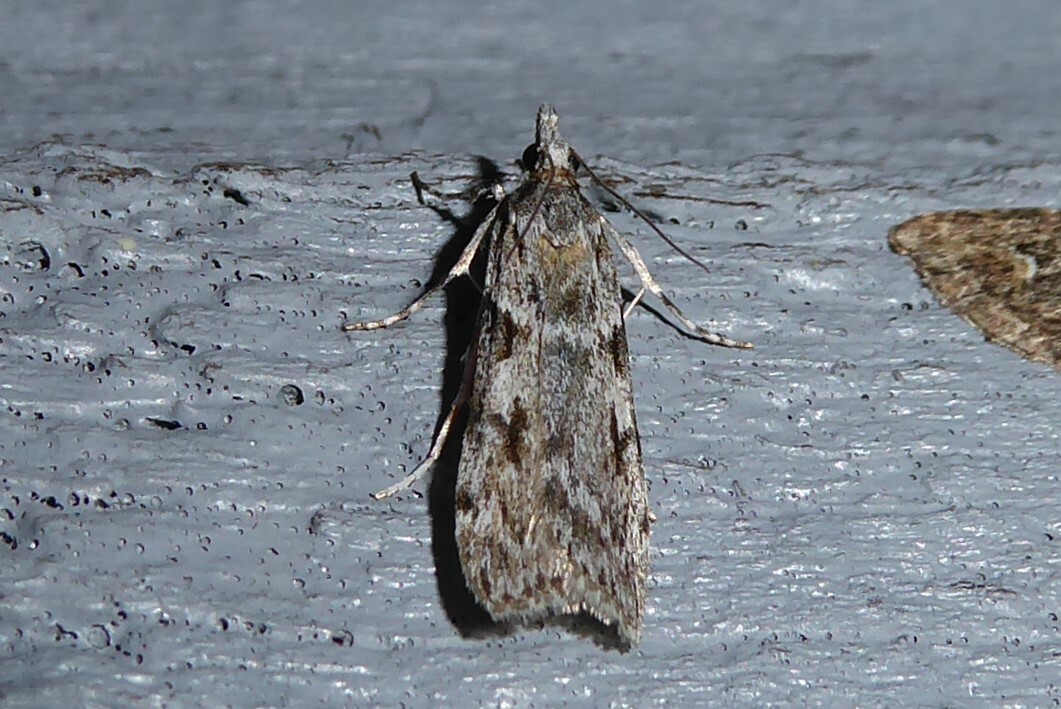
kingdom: Animalia
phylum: Arthropoda
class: Insecta
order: Lepidoptera
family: Crambidae
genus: Scoparia
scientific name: Scoparia halopis
